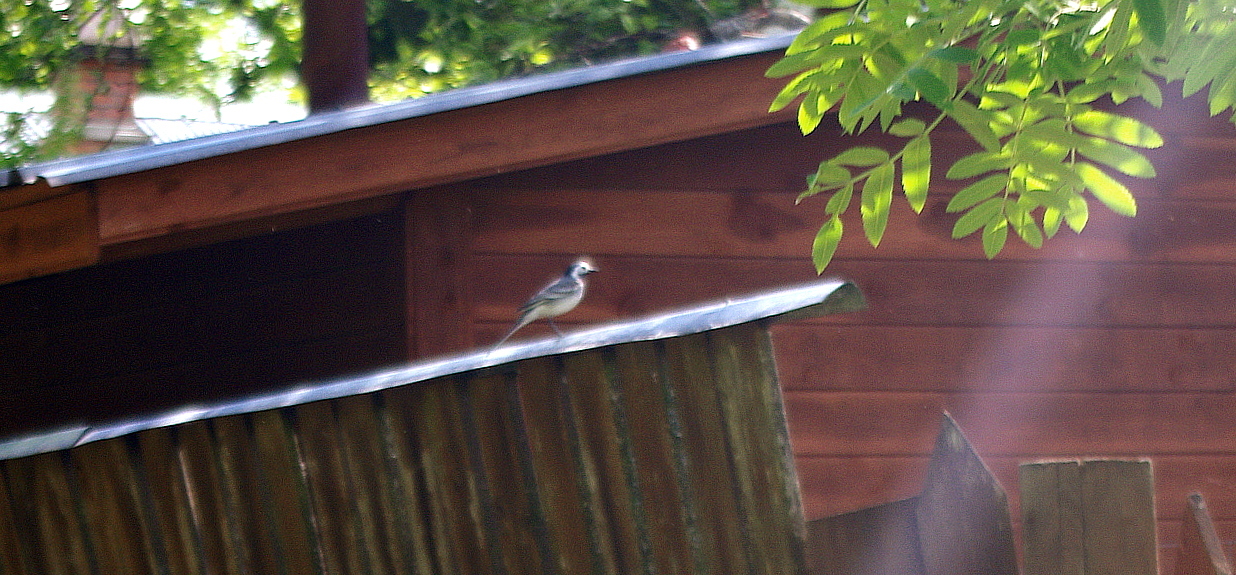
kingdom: Animalia
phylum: Chordata
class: Aves
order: Passeriformes
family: Motacillidae
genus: Motacilla
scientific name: Motacilla alba
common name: White wagtail
